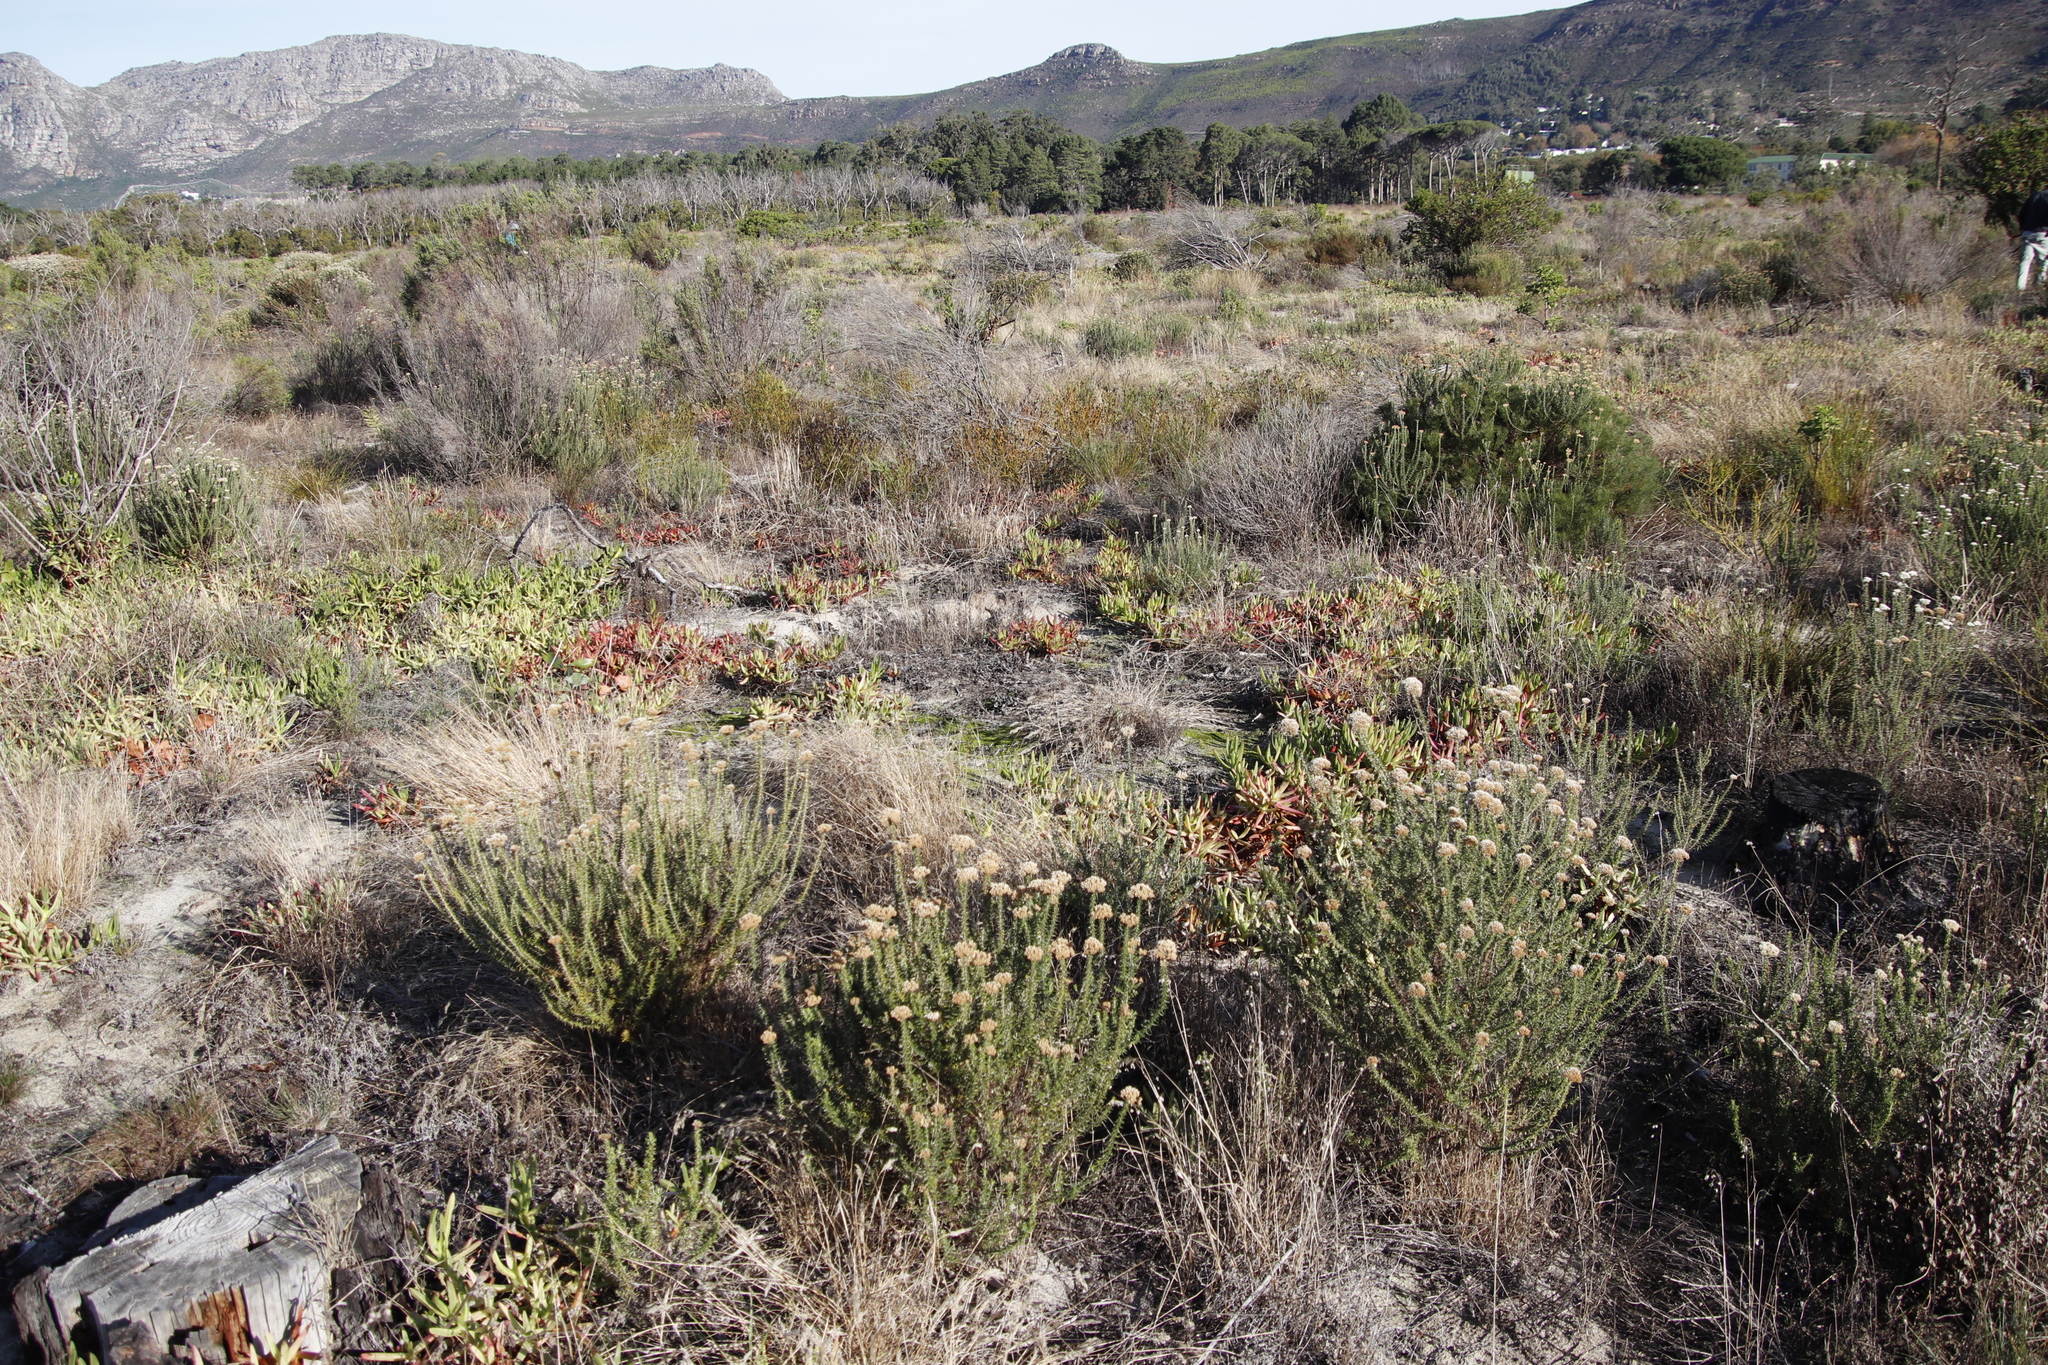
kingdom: Plantae
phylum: Tracheophyta
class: Magnoliopsida
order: Asterales
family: Asteraceae
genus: Metalasia
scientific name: Metalasia densa
